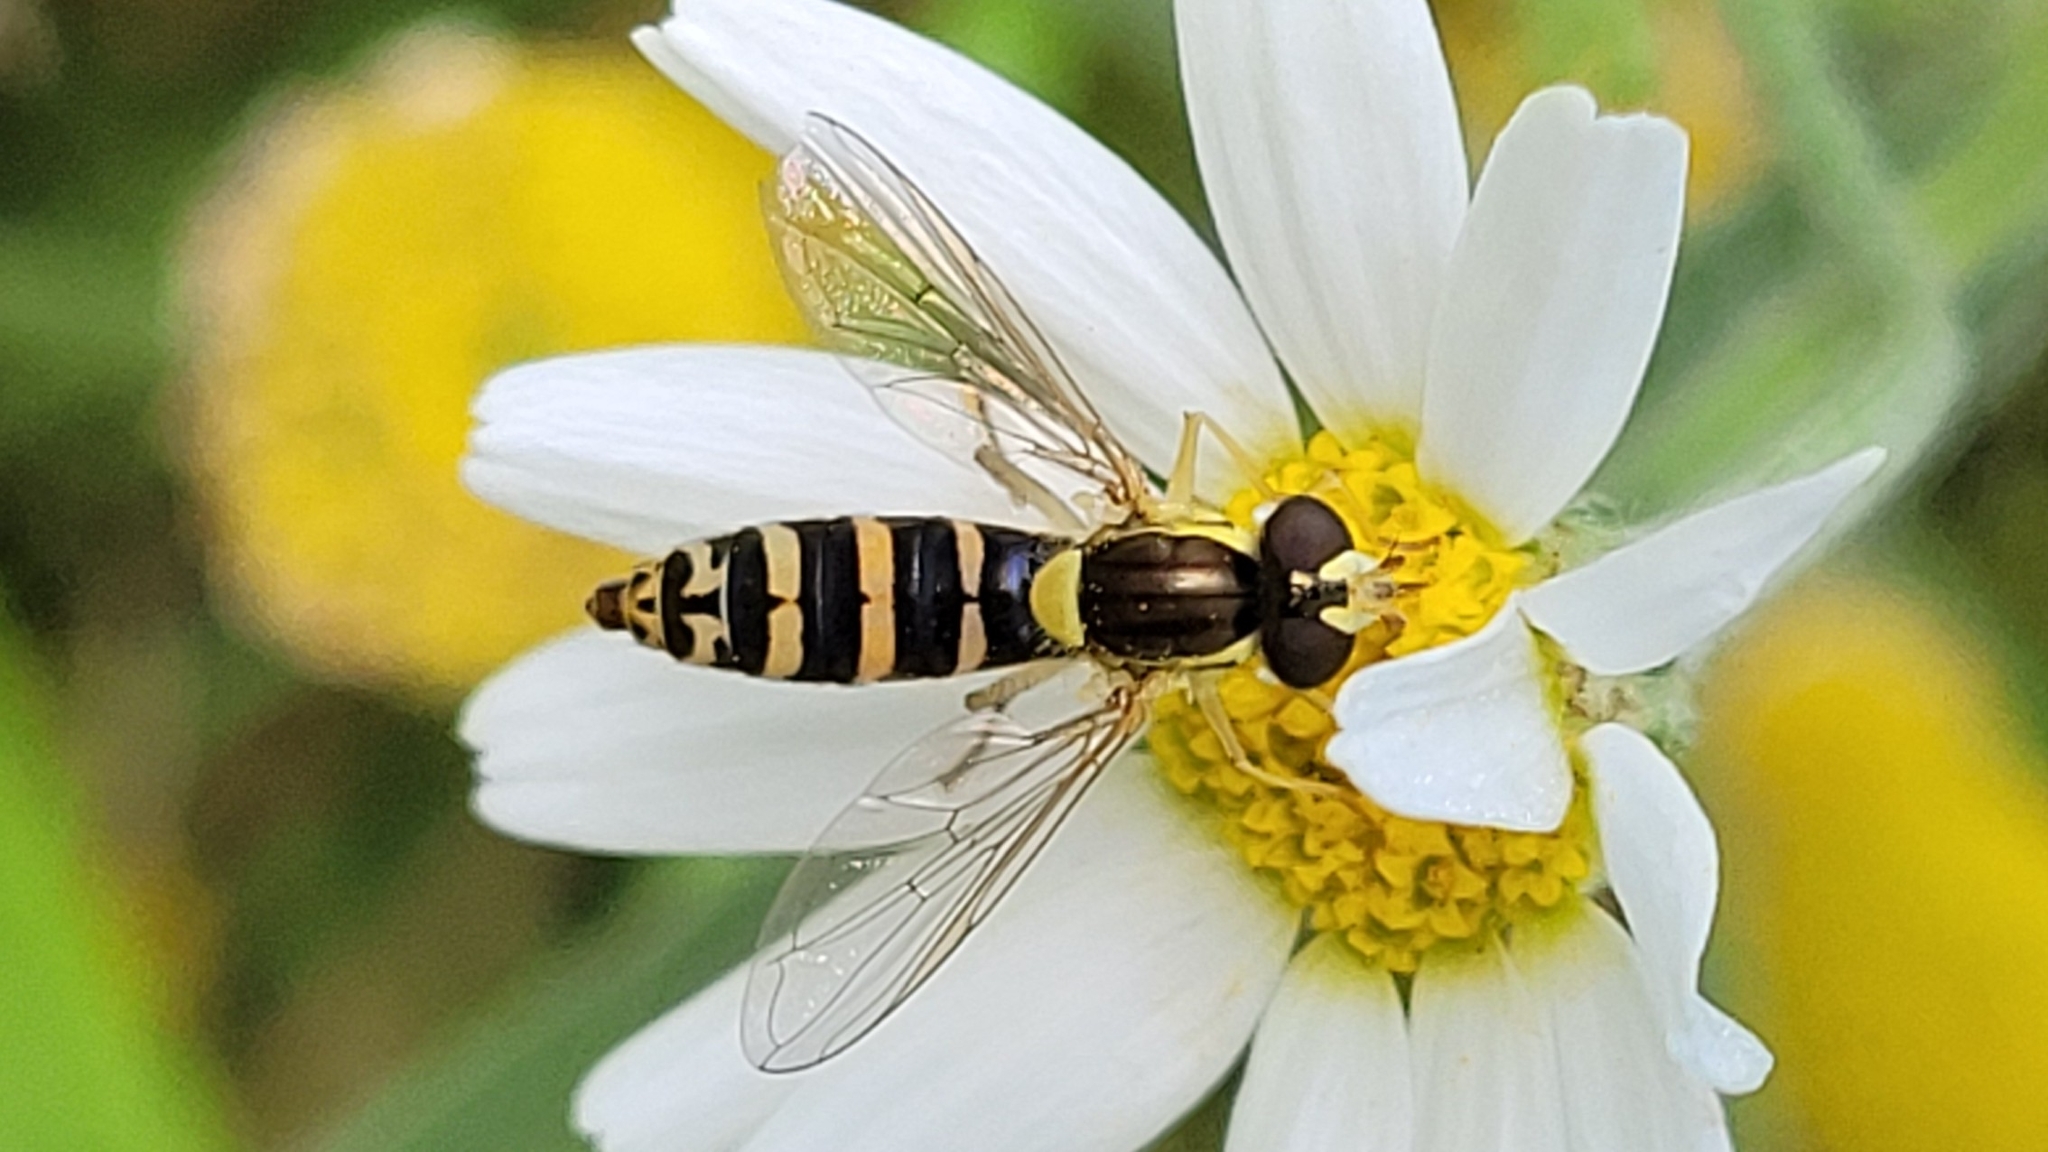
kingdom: Animalia
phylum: Arthropoda
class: Insecta
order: Diptera
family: Syrphidae
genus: Sphaerophoria
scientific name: Sphaerophoria
